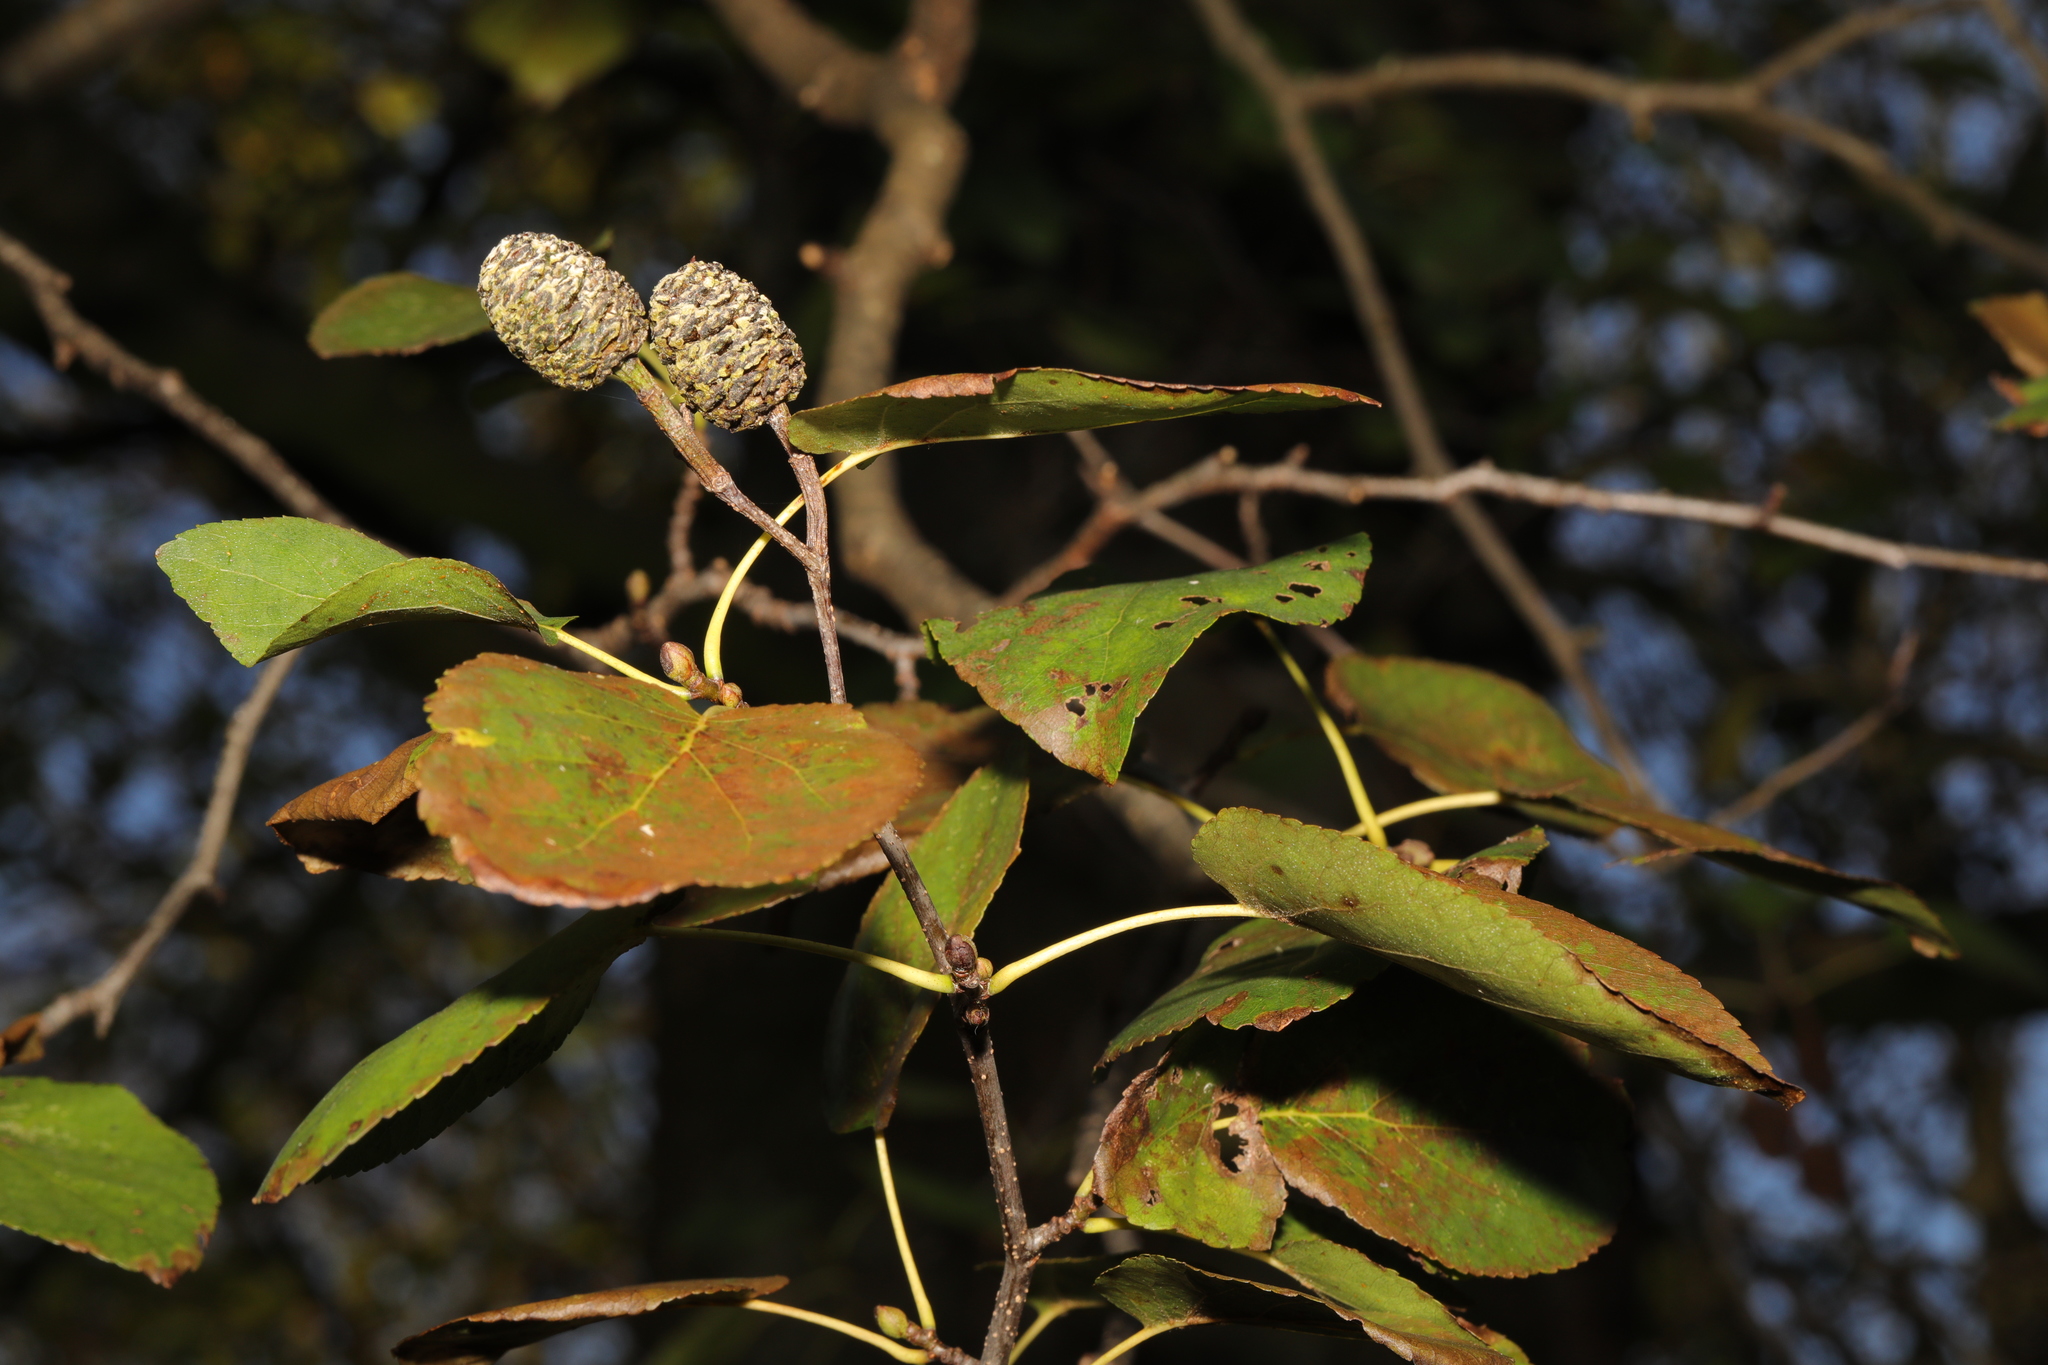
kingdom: Plantae
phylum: Tracheophyta
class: Magnoliopsida
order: Fagales
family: Betulaceae
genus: Alnus
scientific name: Alnus cordata
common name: Italian alder
